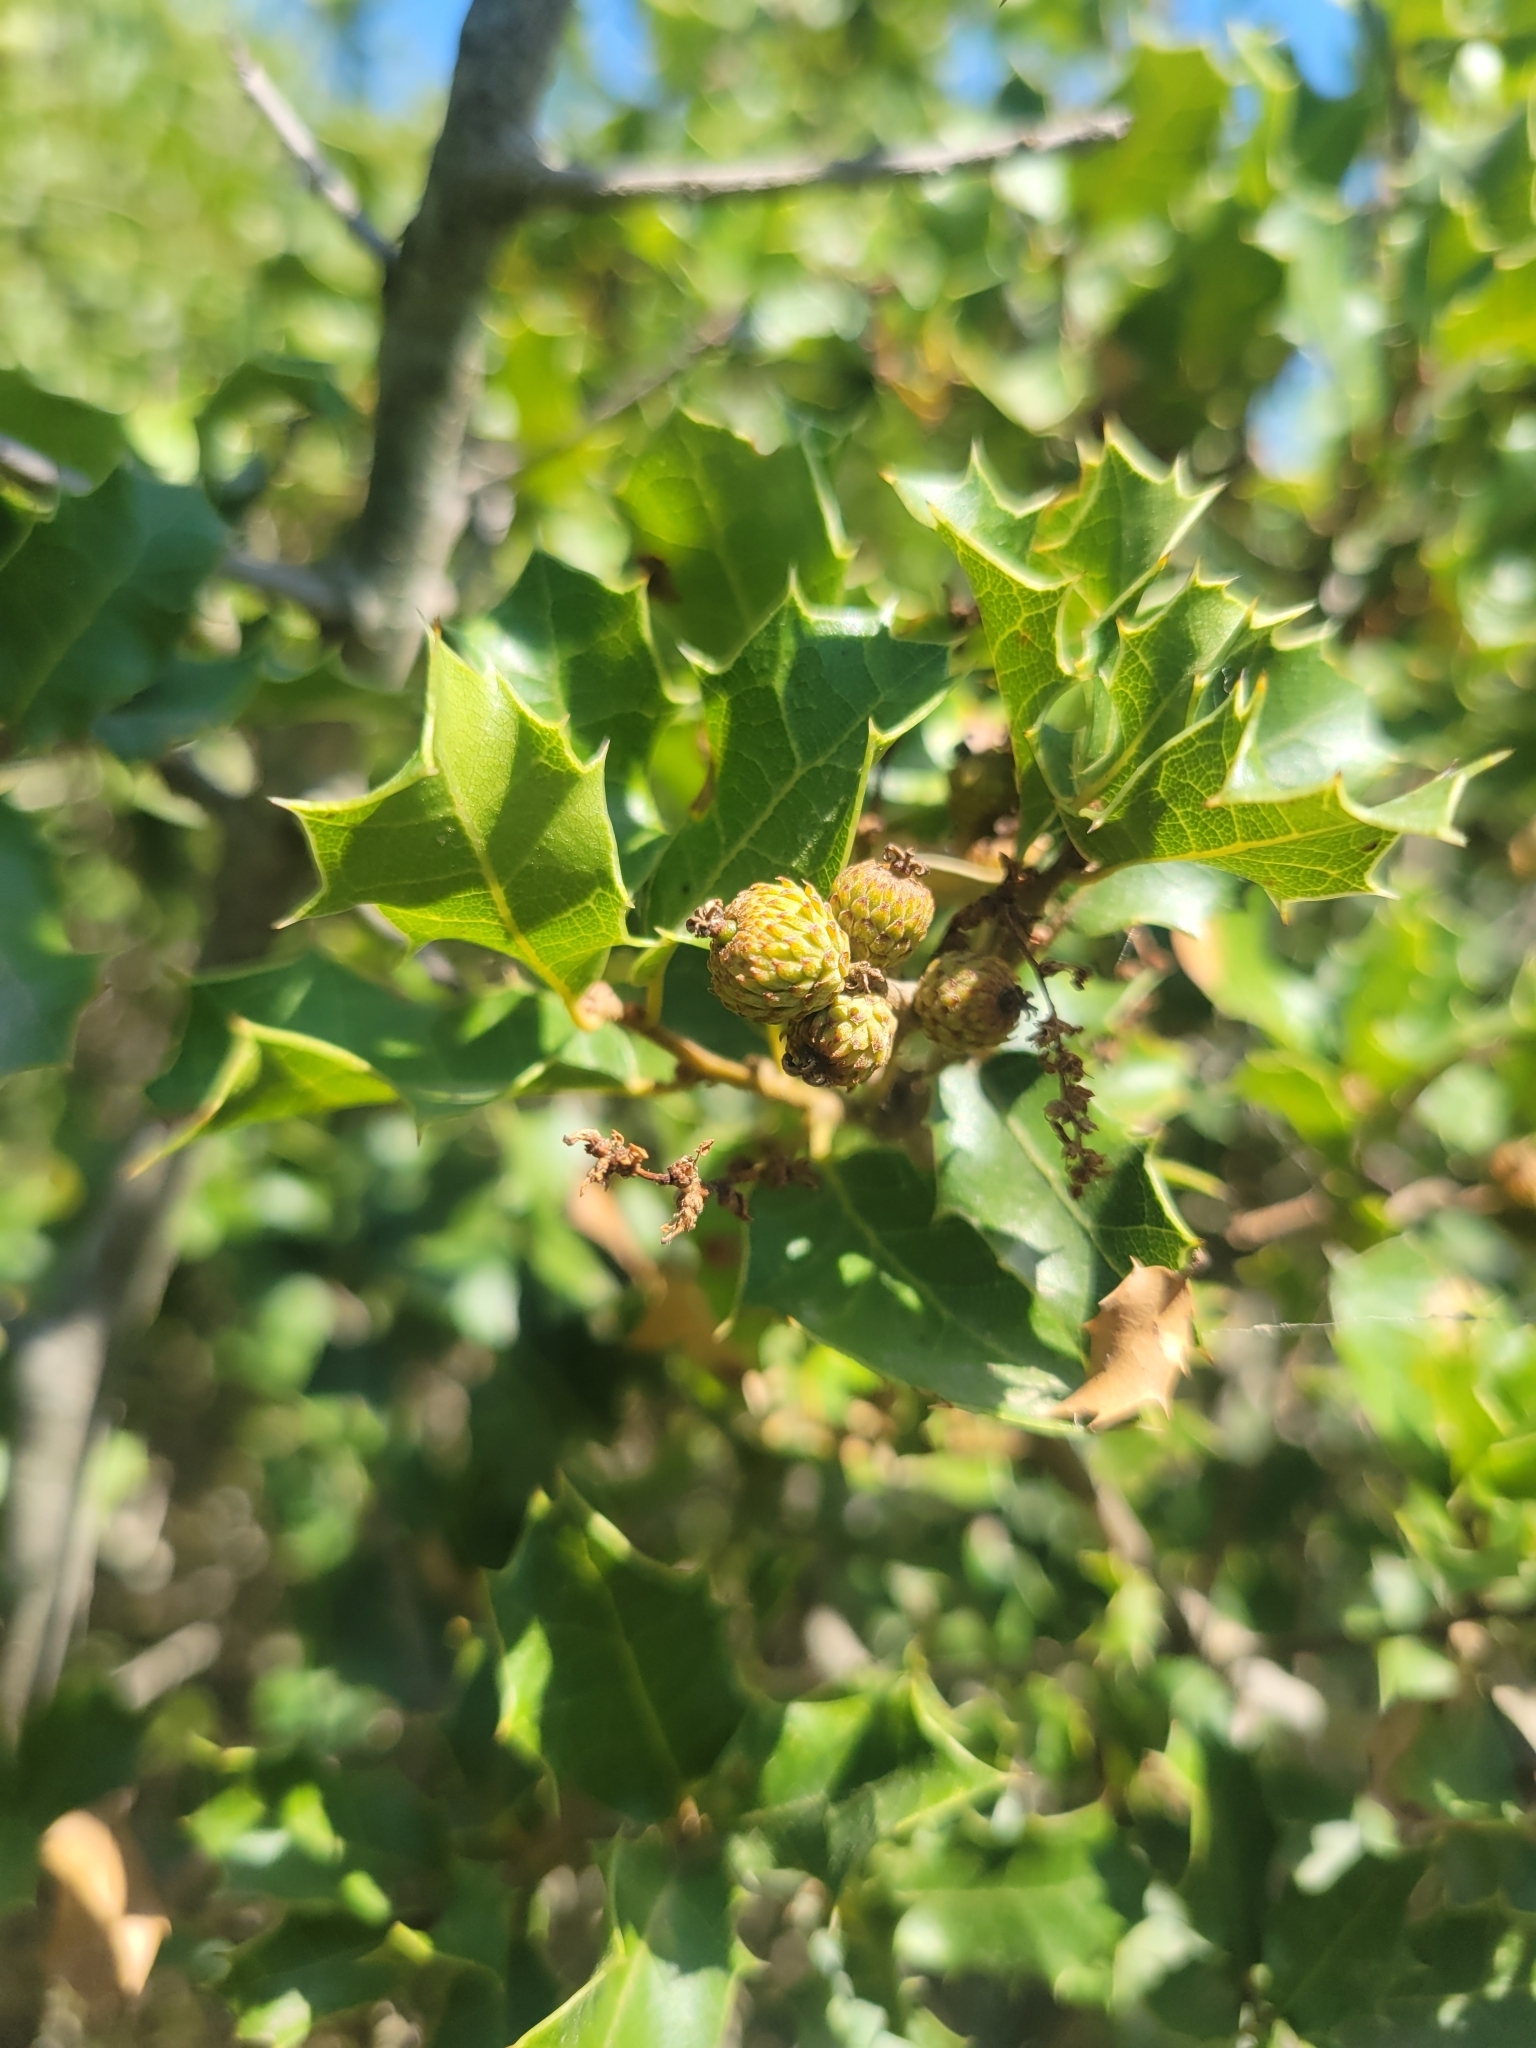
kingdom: Plantae
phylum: Tracheophyta
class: Magnoliopsida
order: Fagales
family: Fagaceae
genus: Quercus
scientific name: Quercus coccifera
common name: Kermes oak
